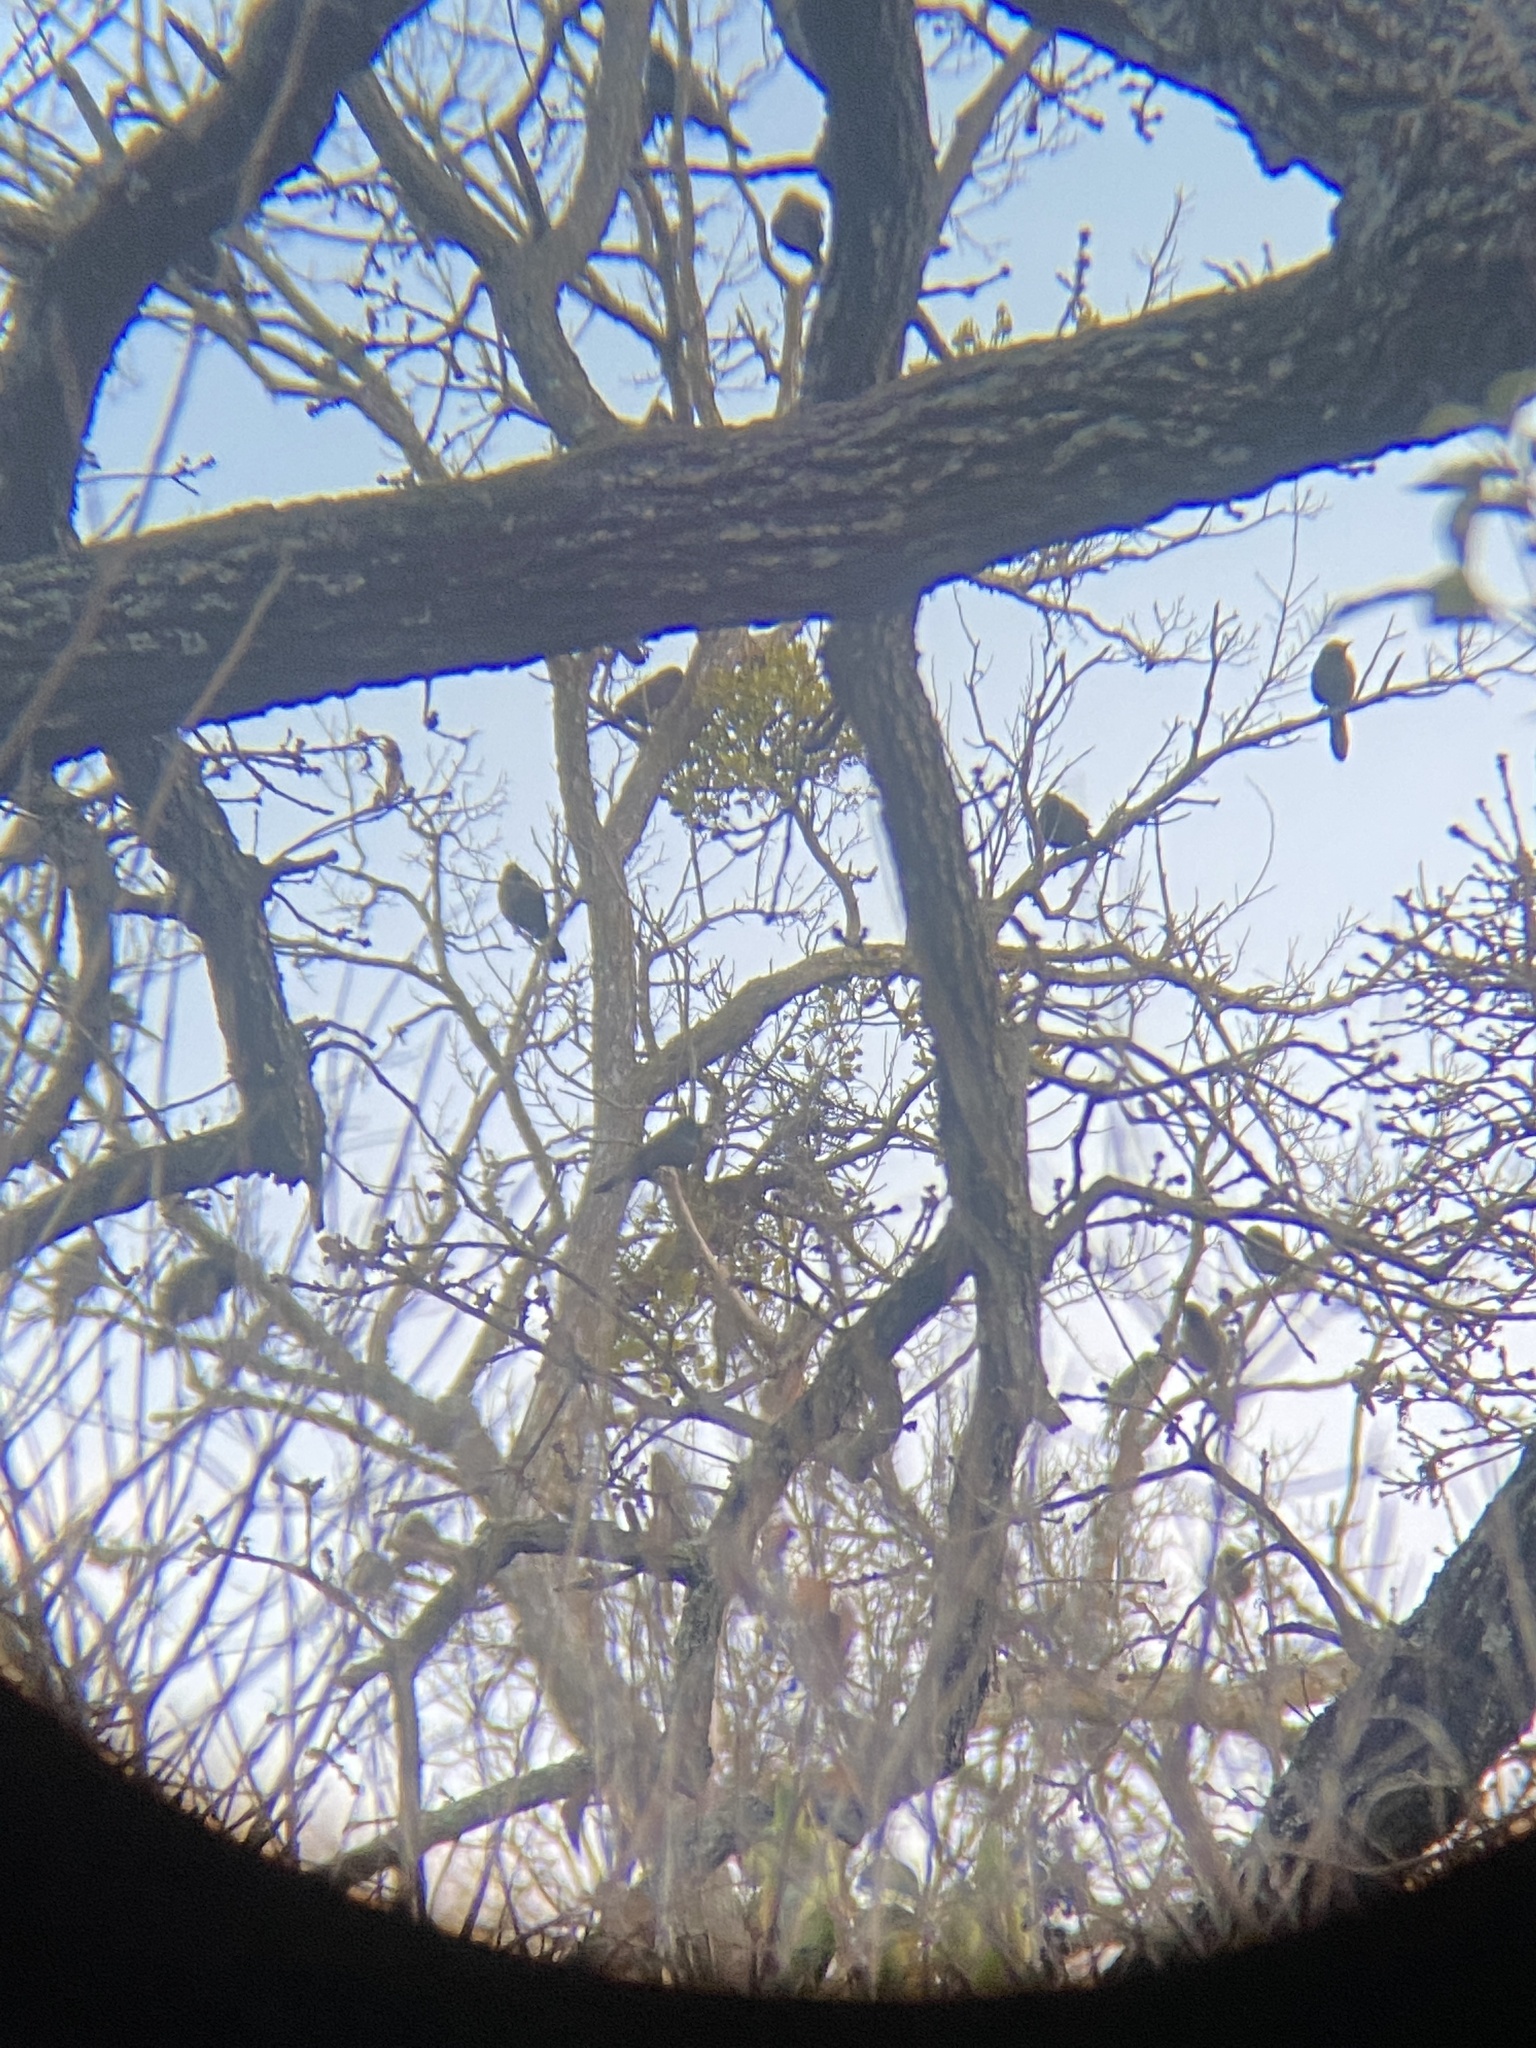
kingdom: Animalia
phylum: Chordata
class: Aves
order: Passeriformes
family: Icteridae
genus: Quiscalus
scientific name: Quiscalus quiscula
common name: Common grackle
